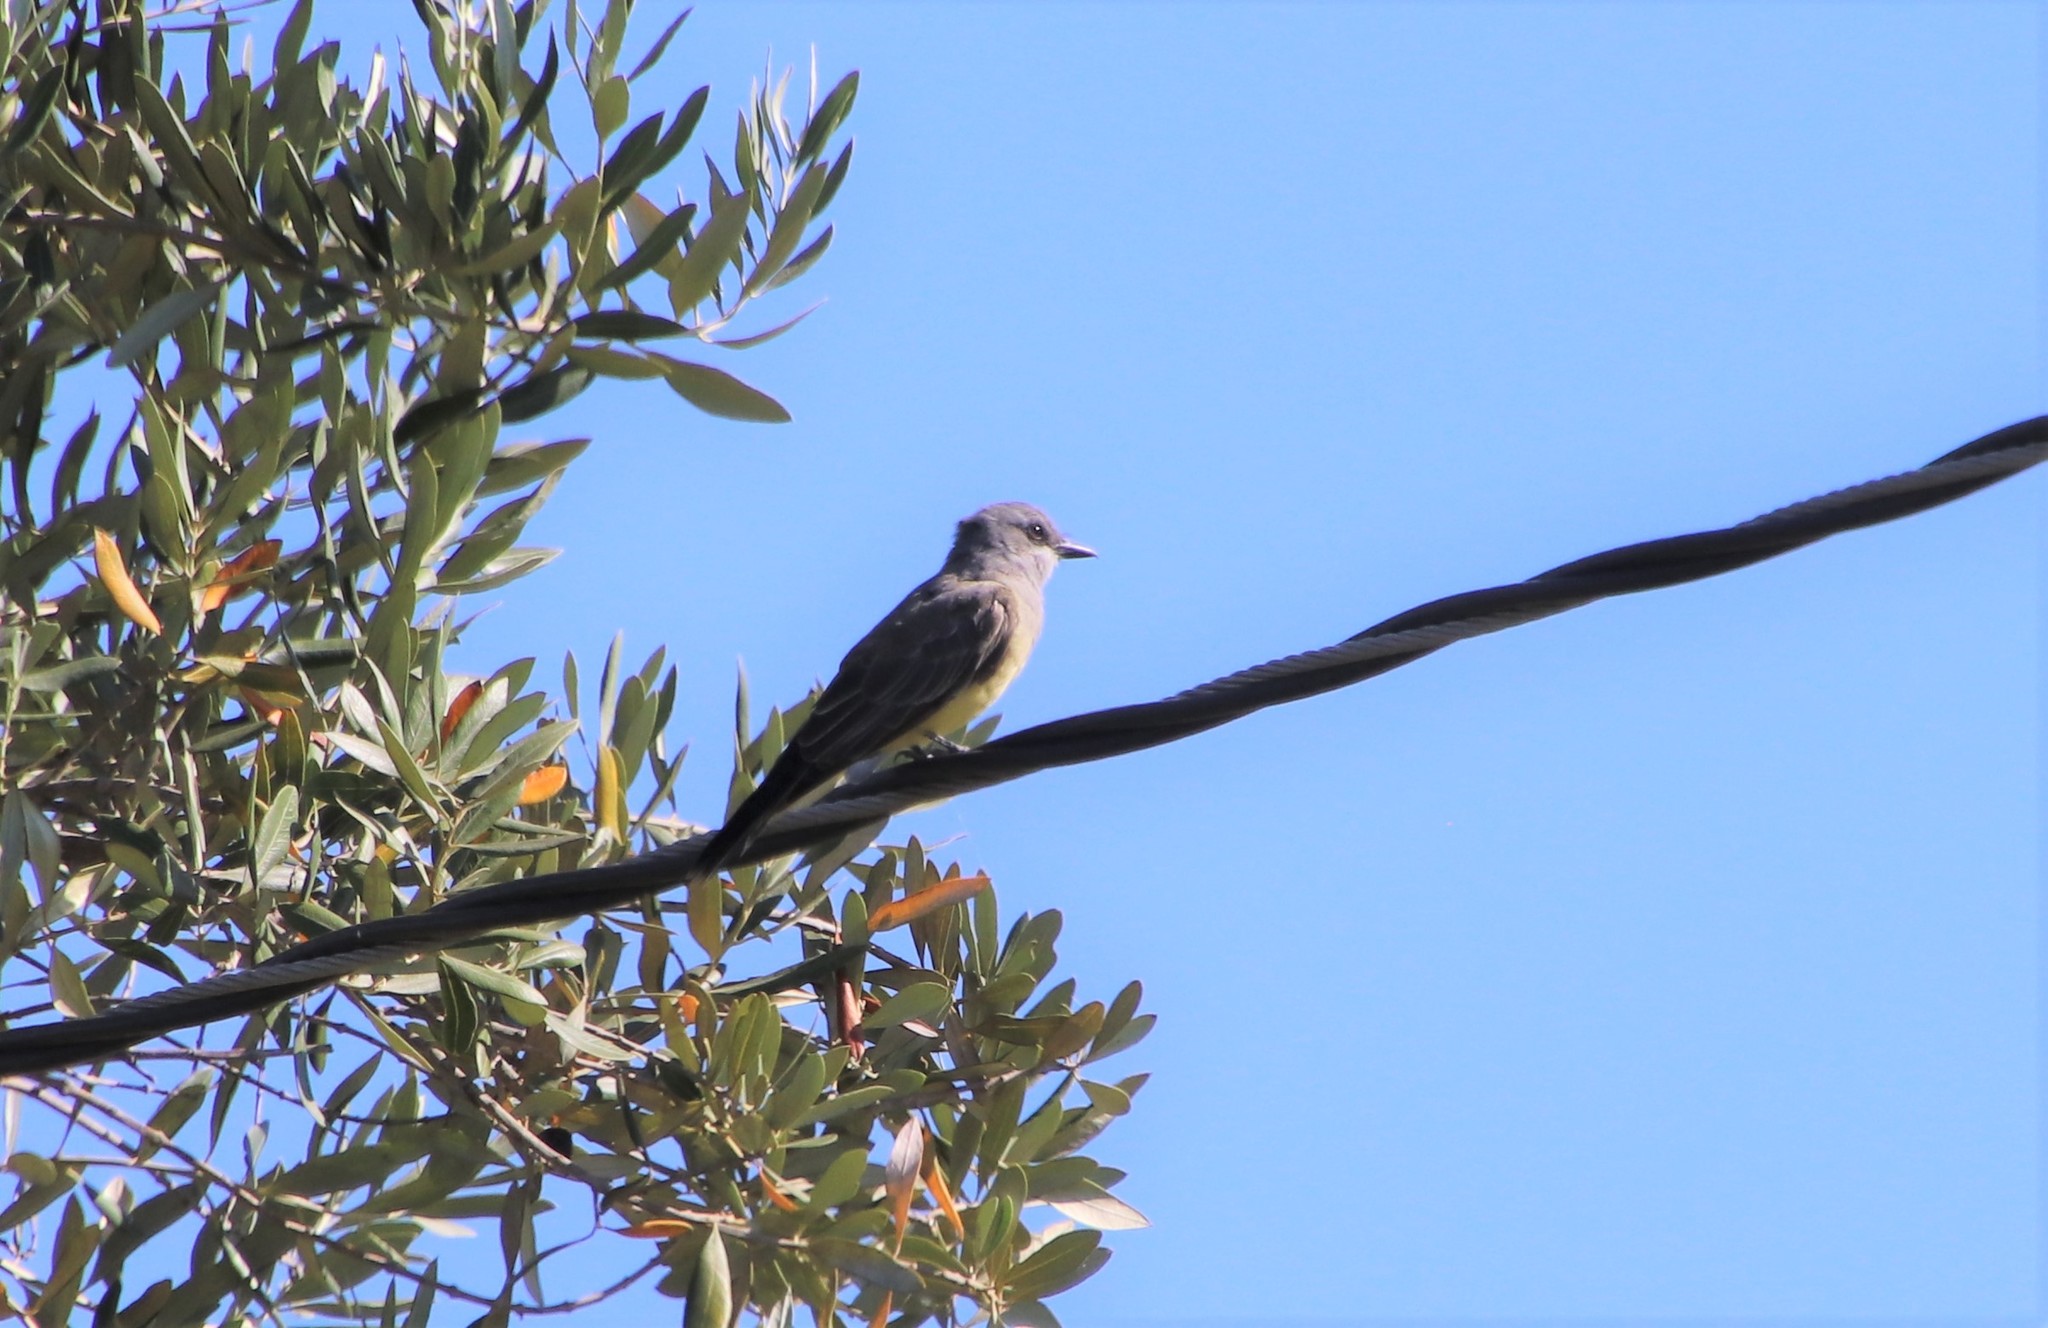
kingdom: Animalia
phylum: Chordata
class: Aves
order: Passeriformes
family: Tyrannidae
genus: Tyrannus
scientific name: Tyrannus vociferans
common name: Cassin's kingbird
